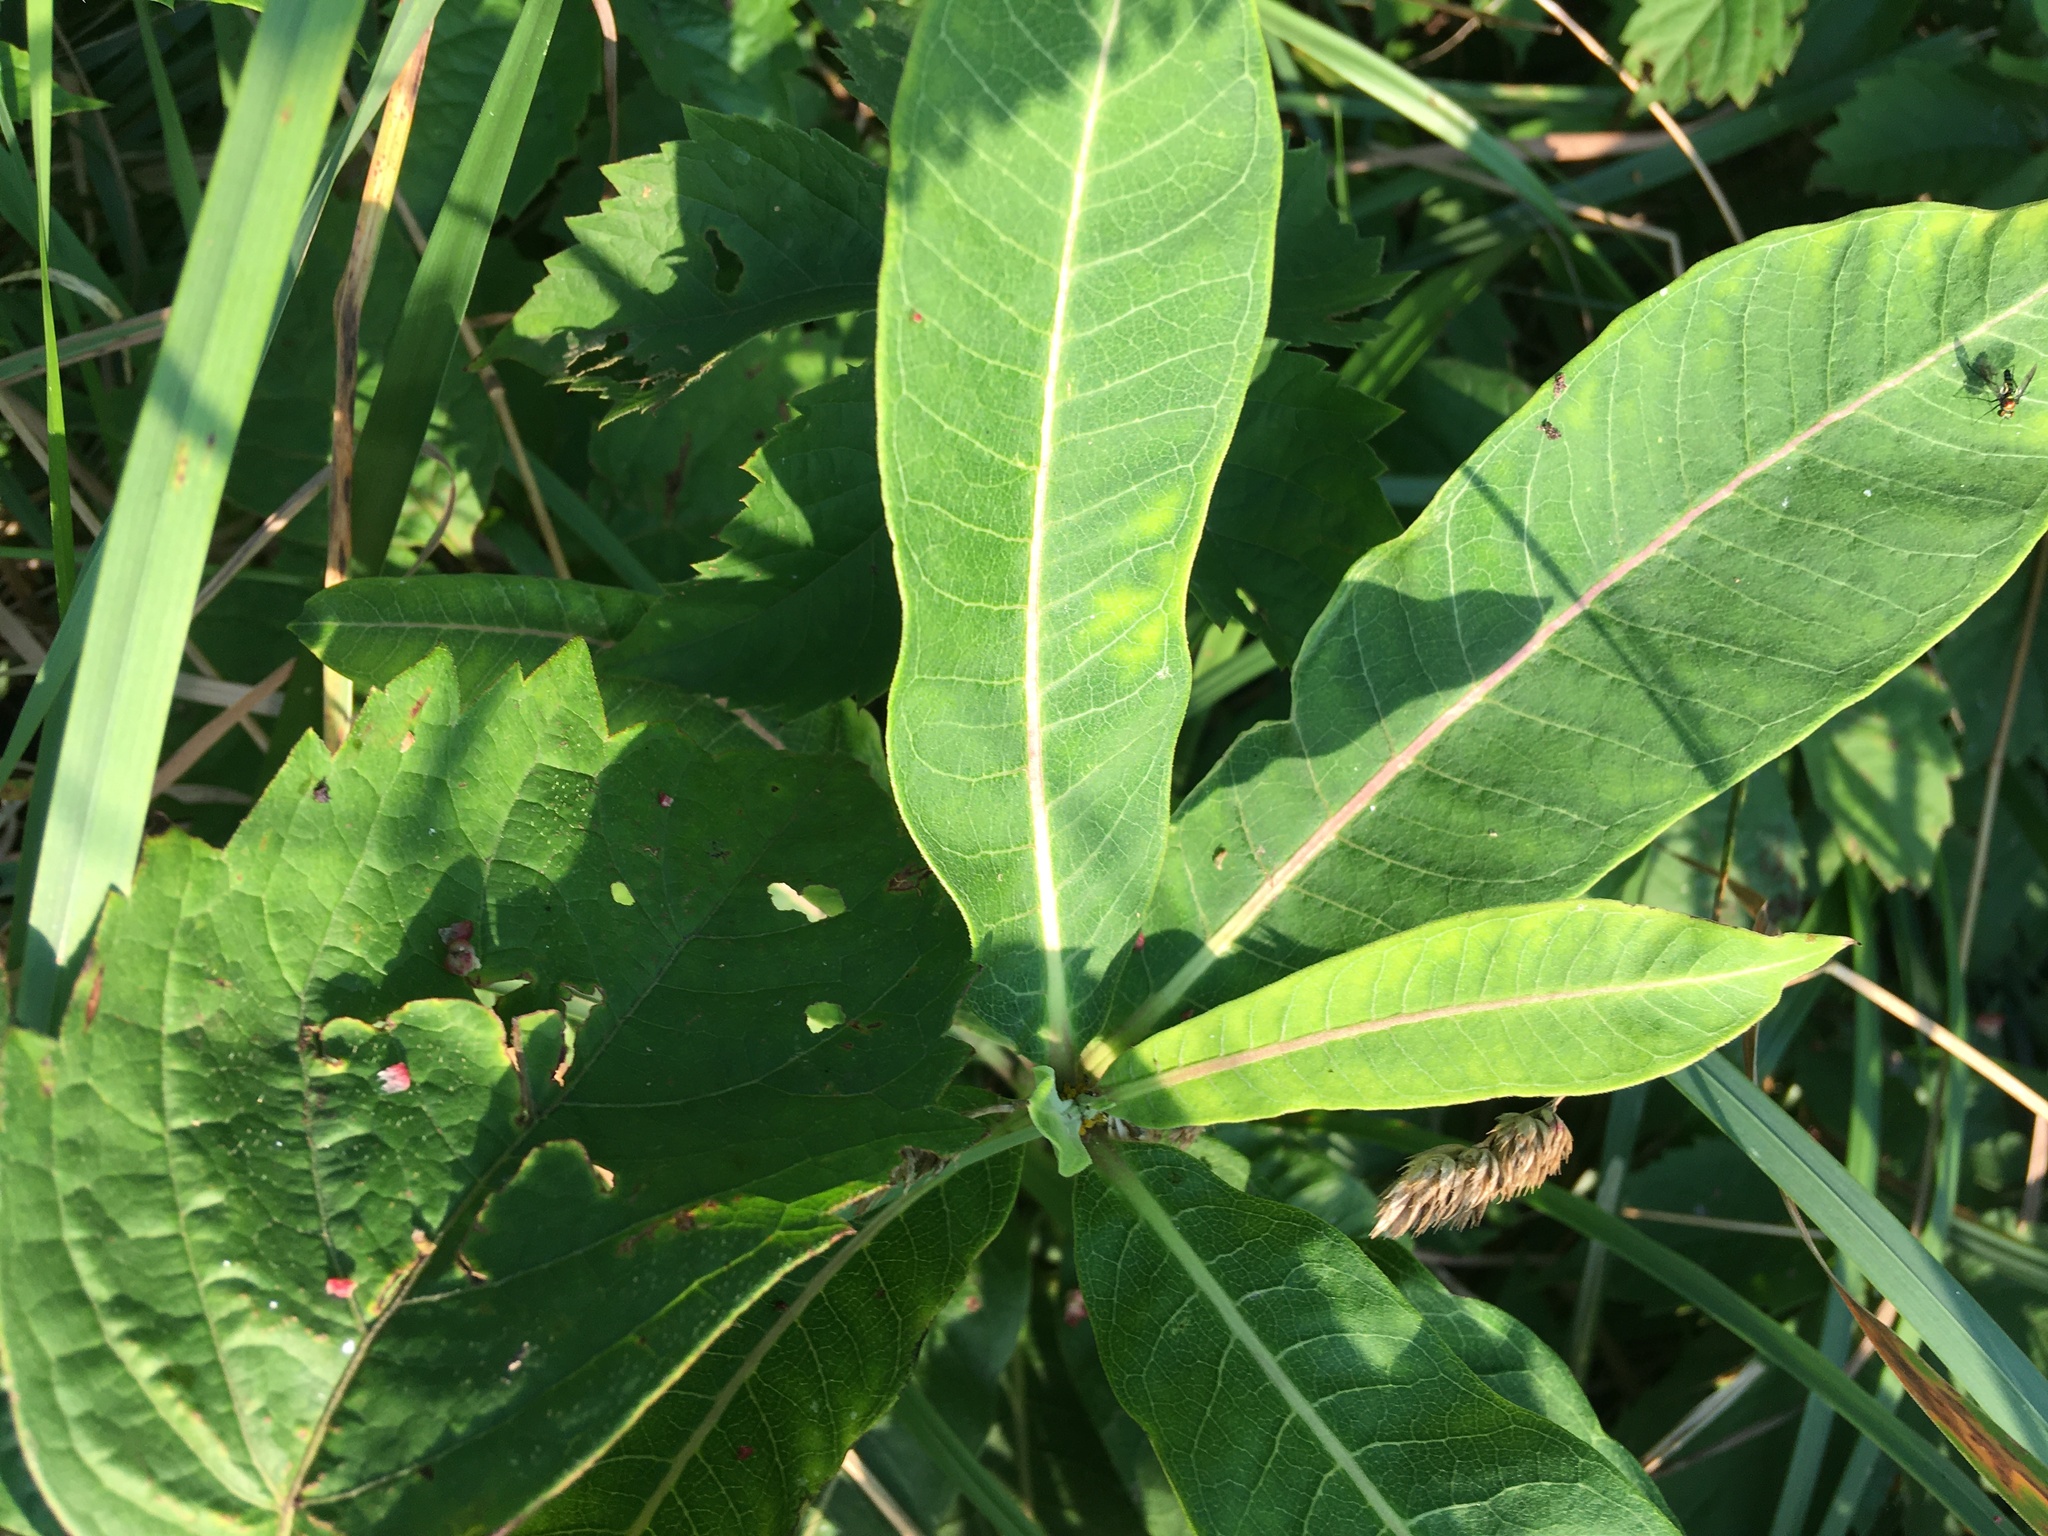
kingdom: Plantae
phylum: Tracheophyta
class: Magnoliopsida
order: Gentianales
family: Apocynaceae
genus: Asclepias
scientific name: Asclepias syriaca
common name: Common milkweed
